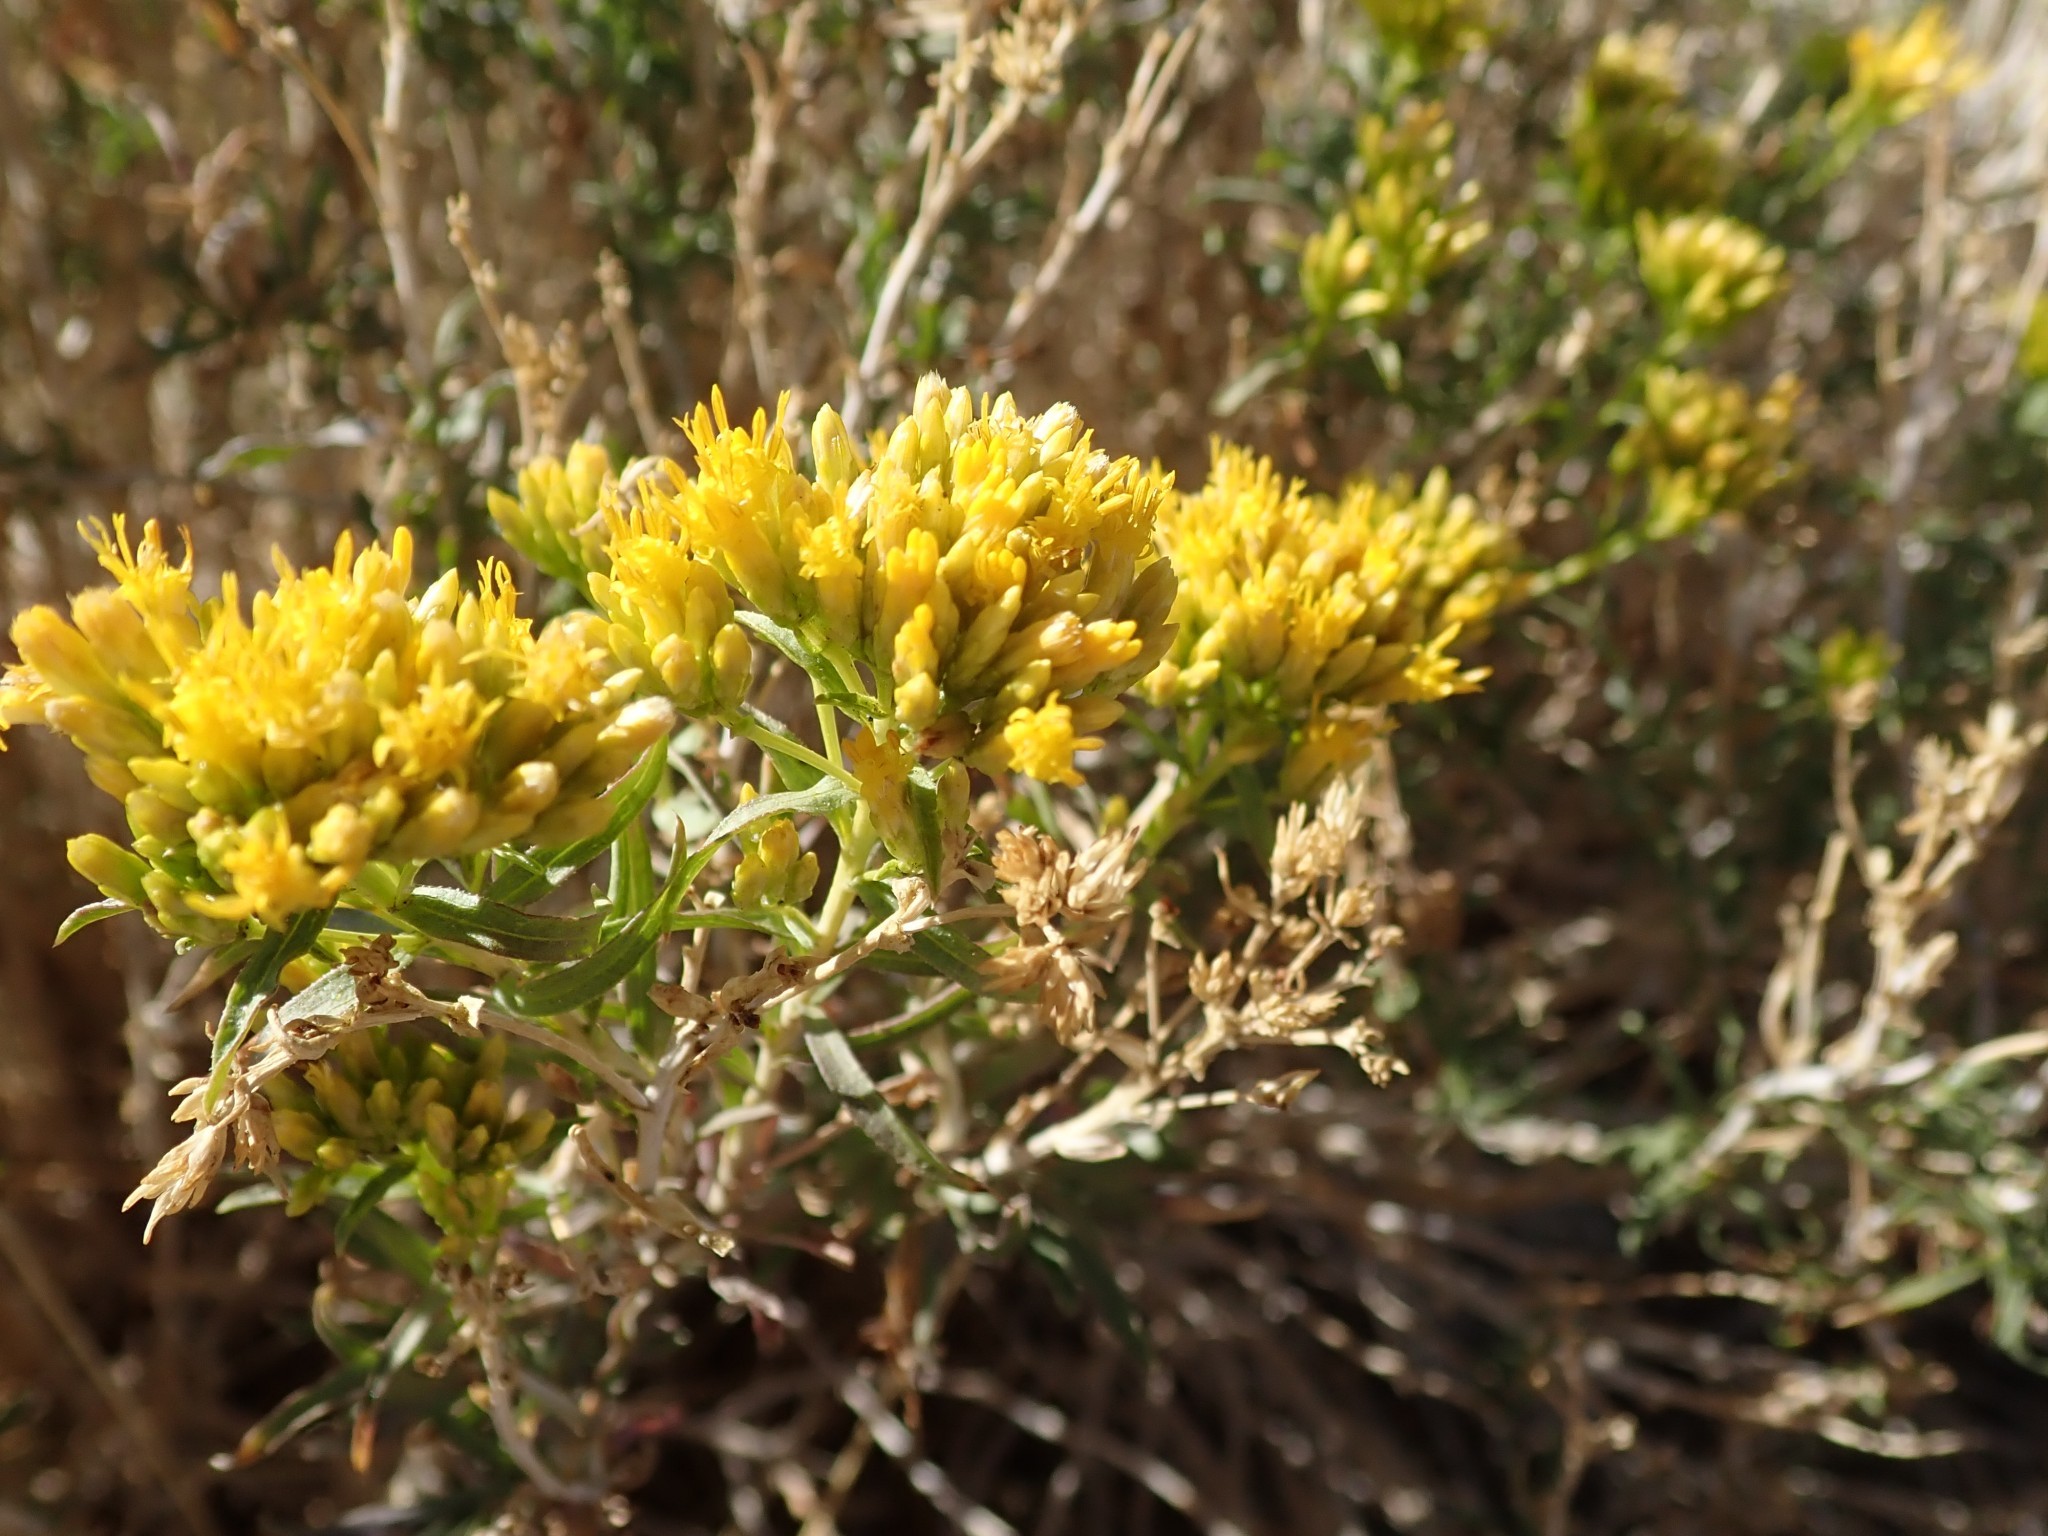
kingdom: Plantae
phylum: Tracheophyta
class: Magnoliopsida
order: Asterales
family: Asteraceae
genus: Chrysothamnus
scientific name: Chrysothamnus viscidiflorus
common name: Yellow rabbitbrush
